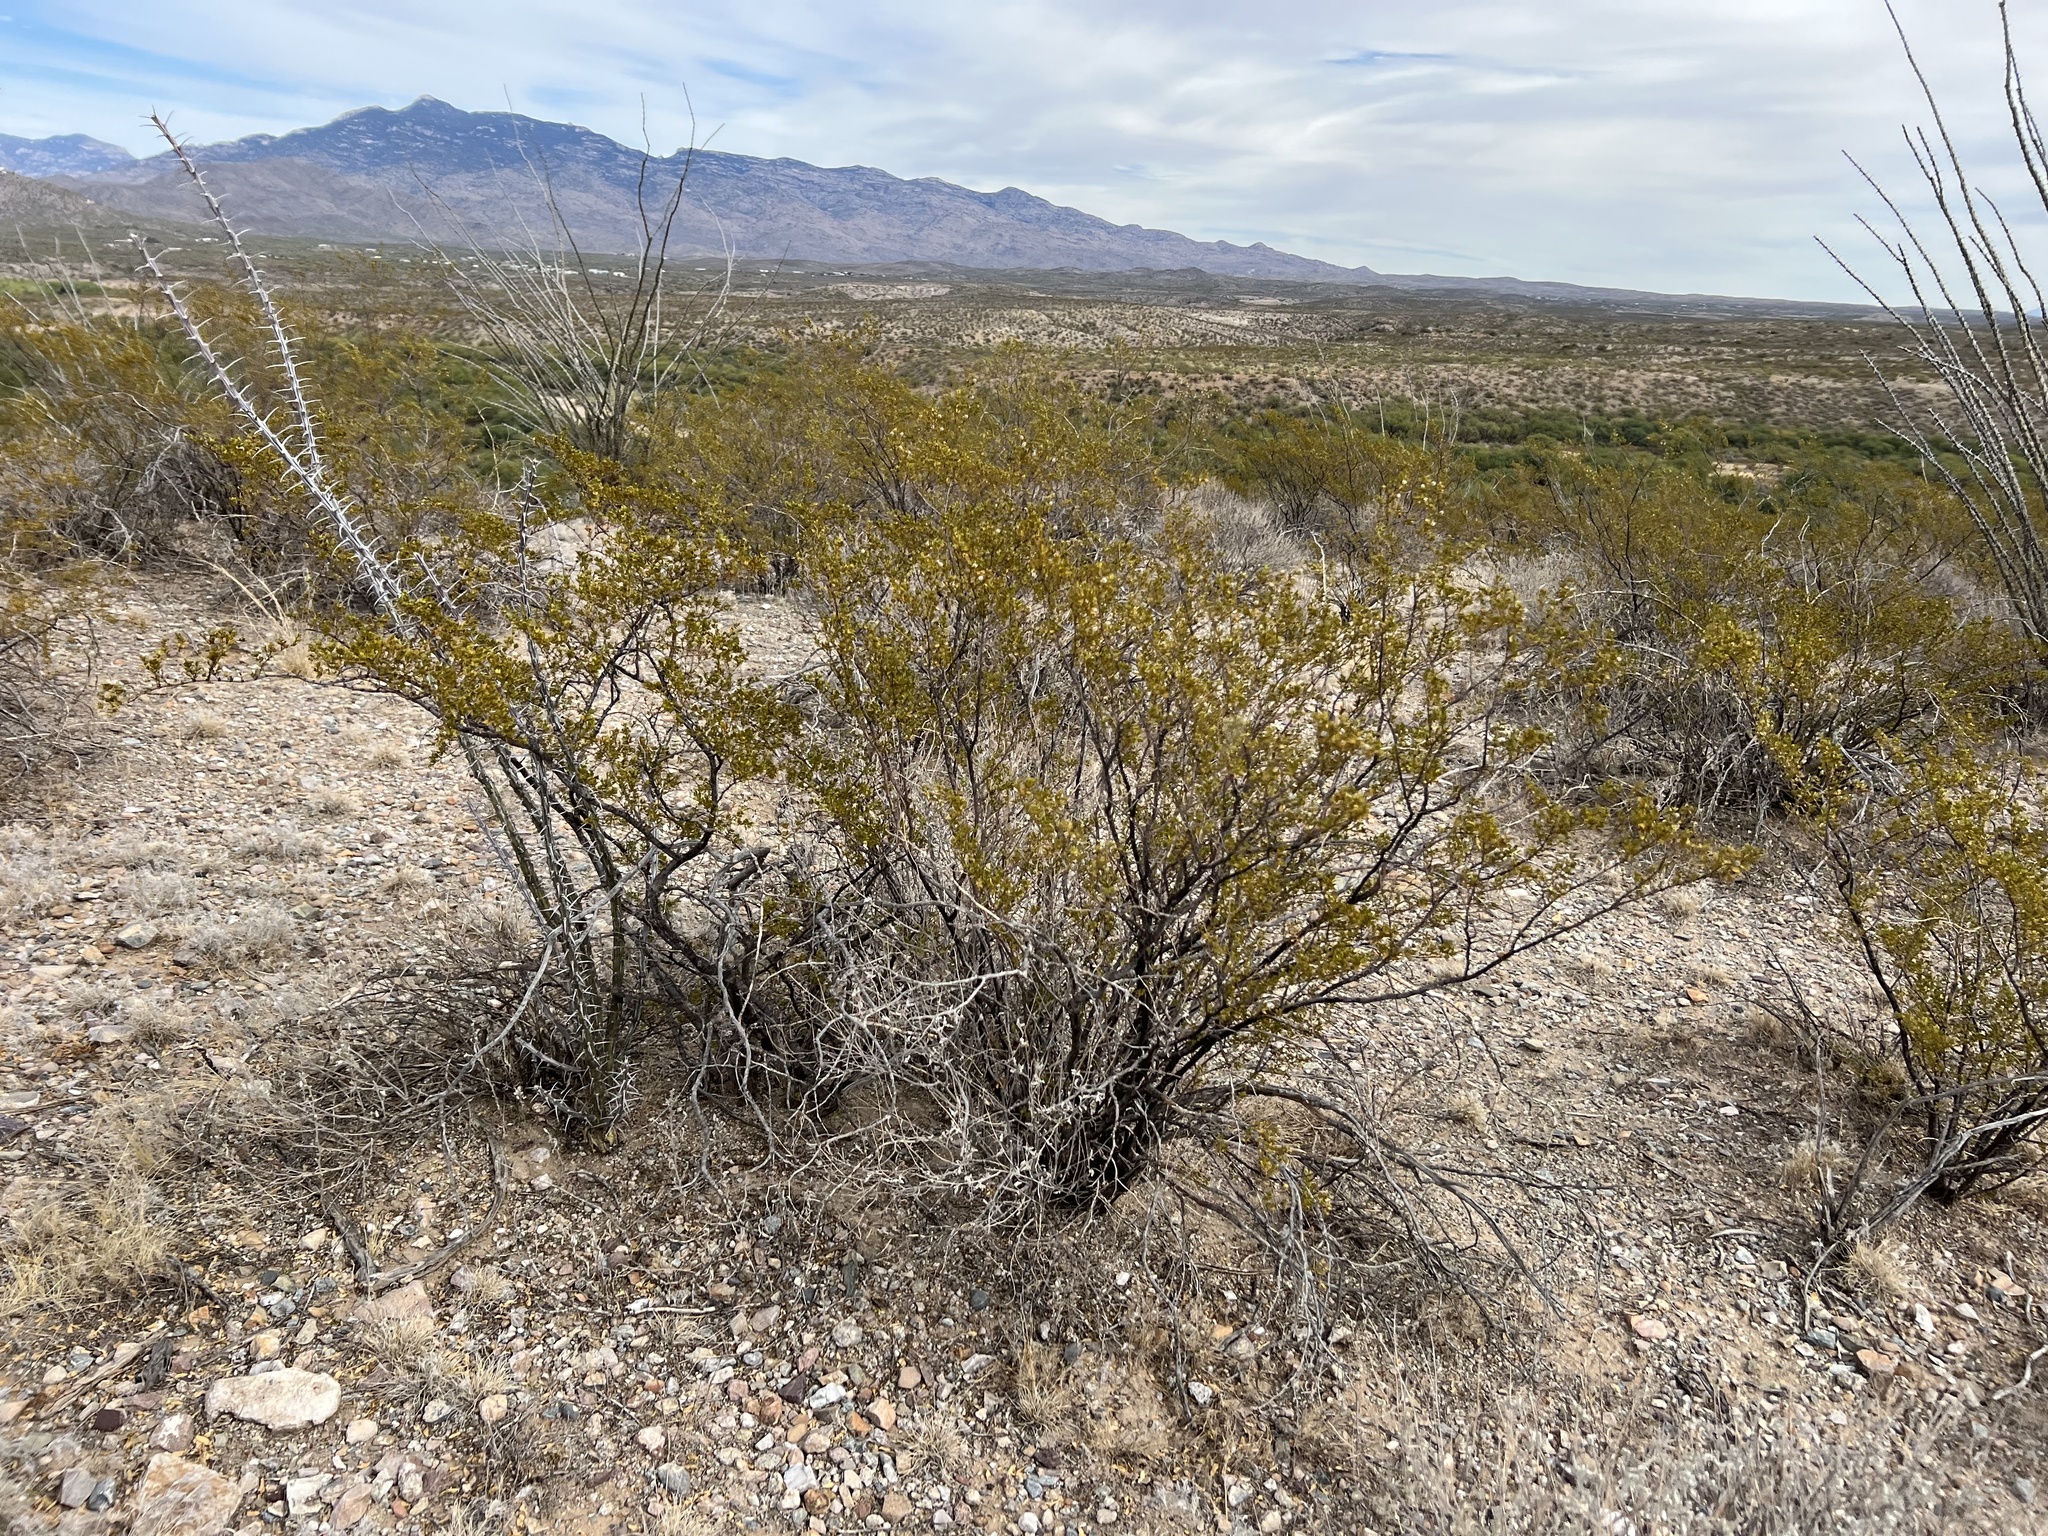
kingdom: Plantae
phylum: Tracheophyta
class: Magnoliopsida
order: Zygophyllales
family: Zygophyllaceae
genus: Larrea
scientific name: Larrea tridentata
